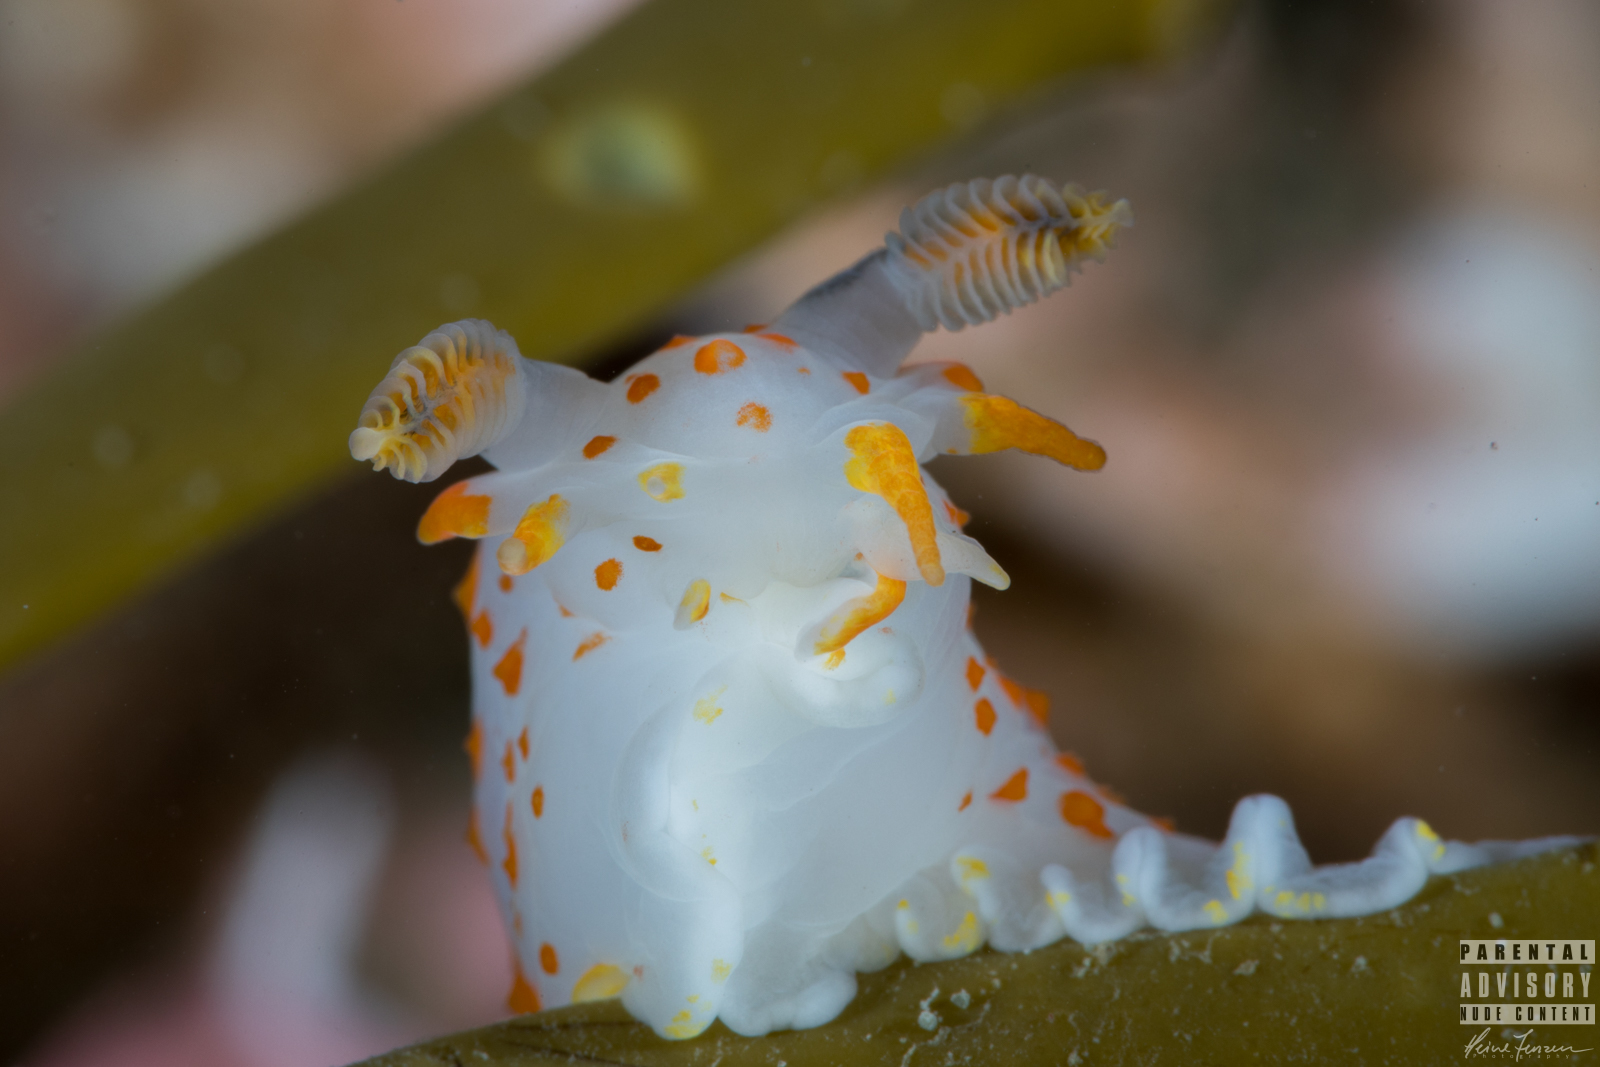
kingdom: Animalia
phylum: Mollusca
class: Gastropoda
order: Nudibranchia
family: Polyceridae
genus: Polycera
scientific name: Polycera quadrilineata
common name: Four-striped polycera
